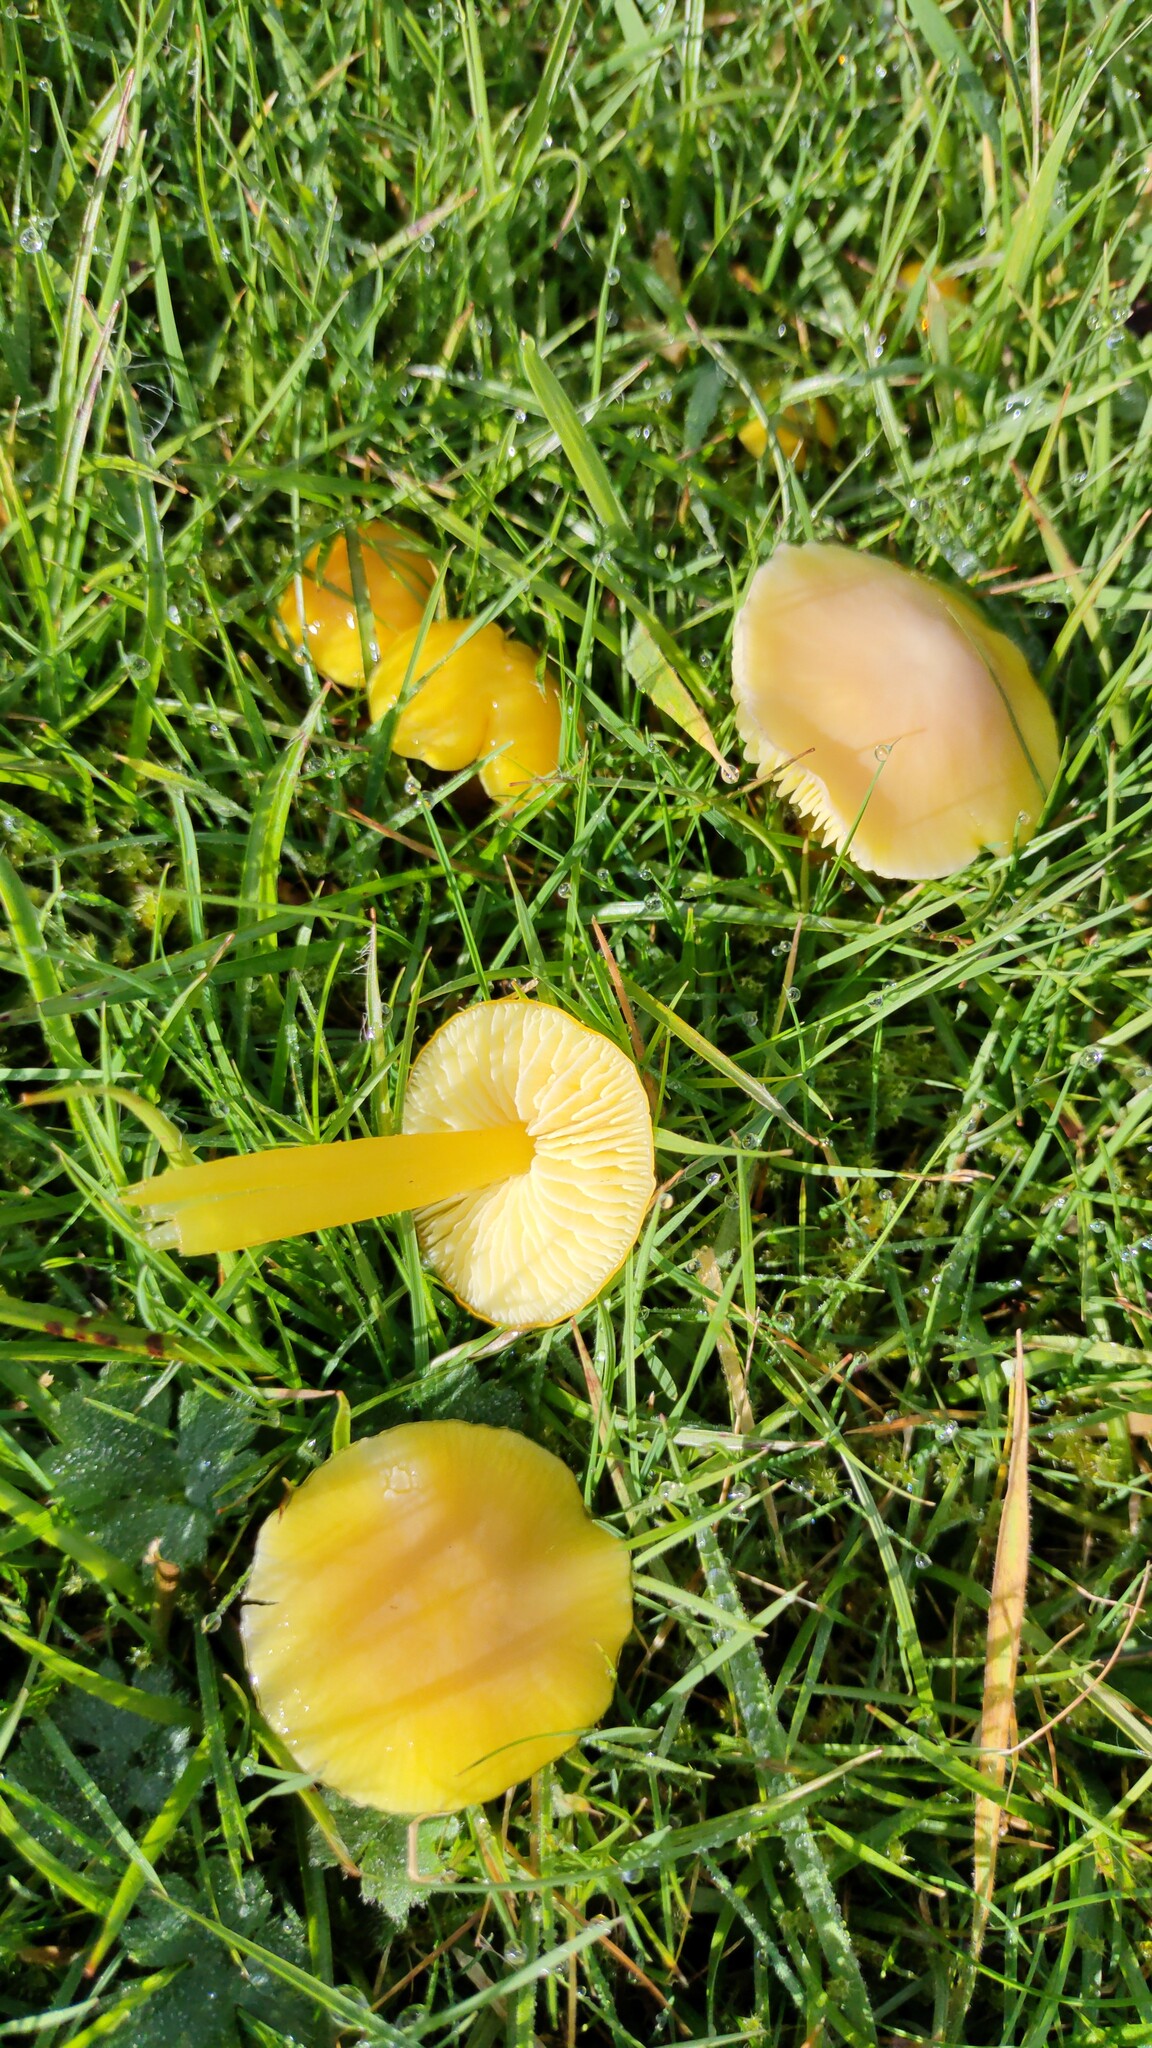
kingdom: Fungi
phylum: Basidiomycota
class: Agaricomycetes
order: Agaricales
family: Hygrophoraceae
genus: Hygrocybe
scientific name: Hygrocybe chlorophana
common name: Golden waxcap
